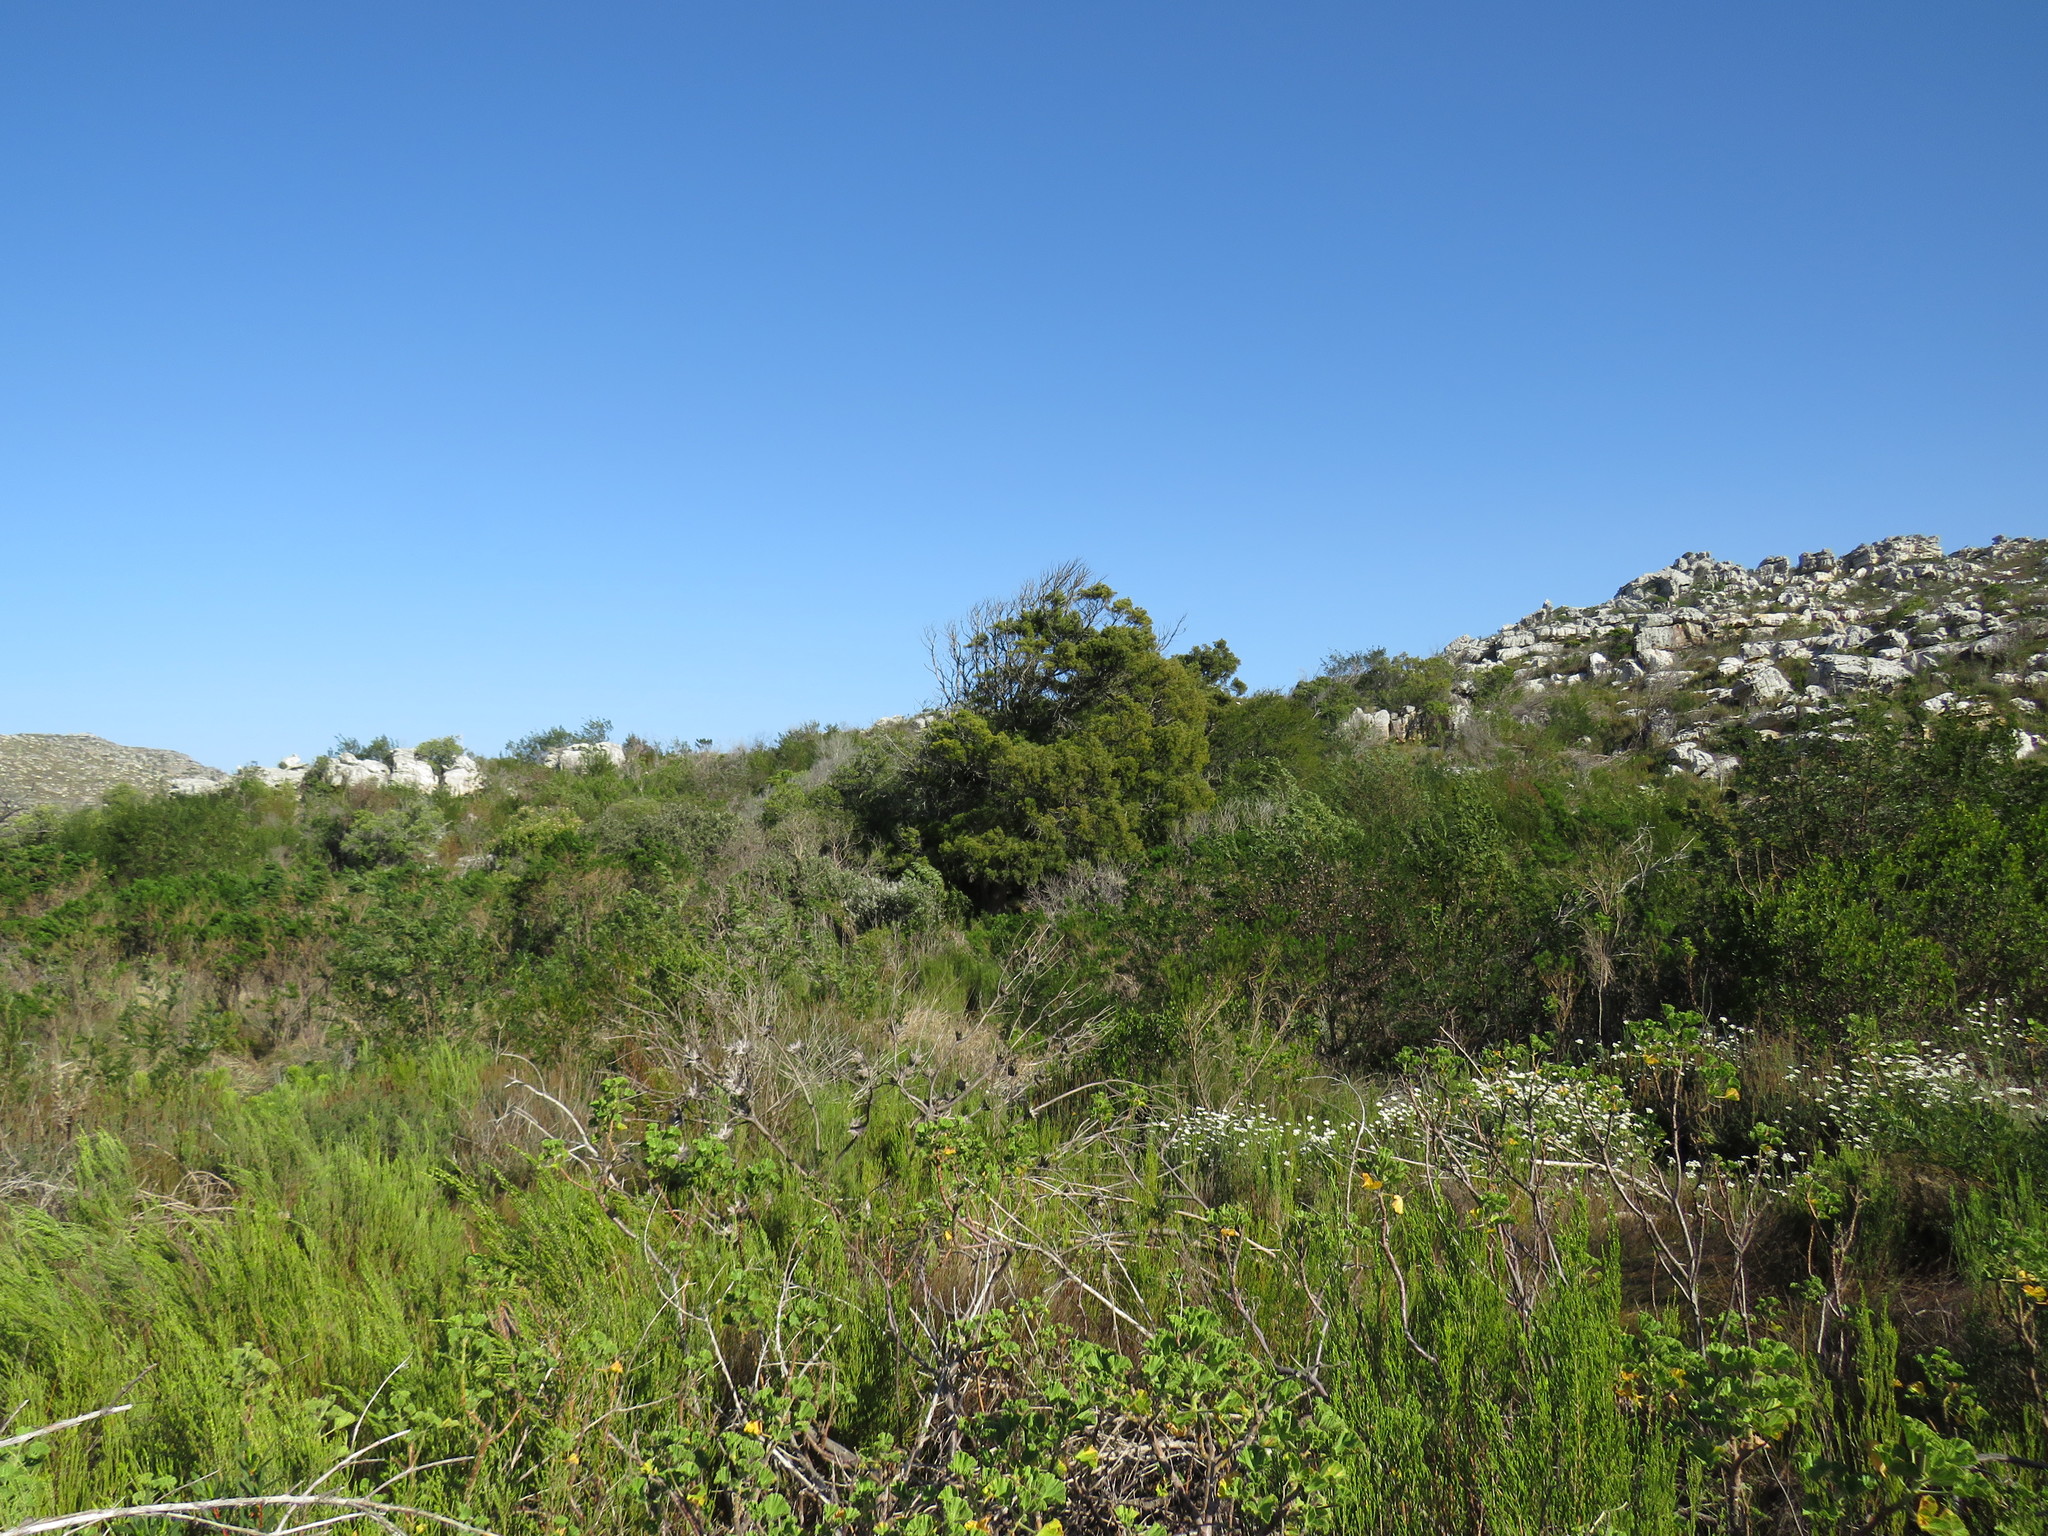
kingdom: Plantae
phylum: Tracheophyta
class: Pinopsida
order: Pinales
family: Podocarpaceae
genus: Afrocarpus
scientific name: Afrocarpus falcatus
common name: Bastard yellowwood
